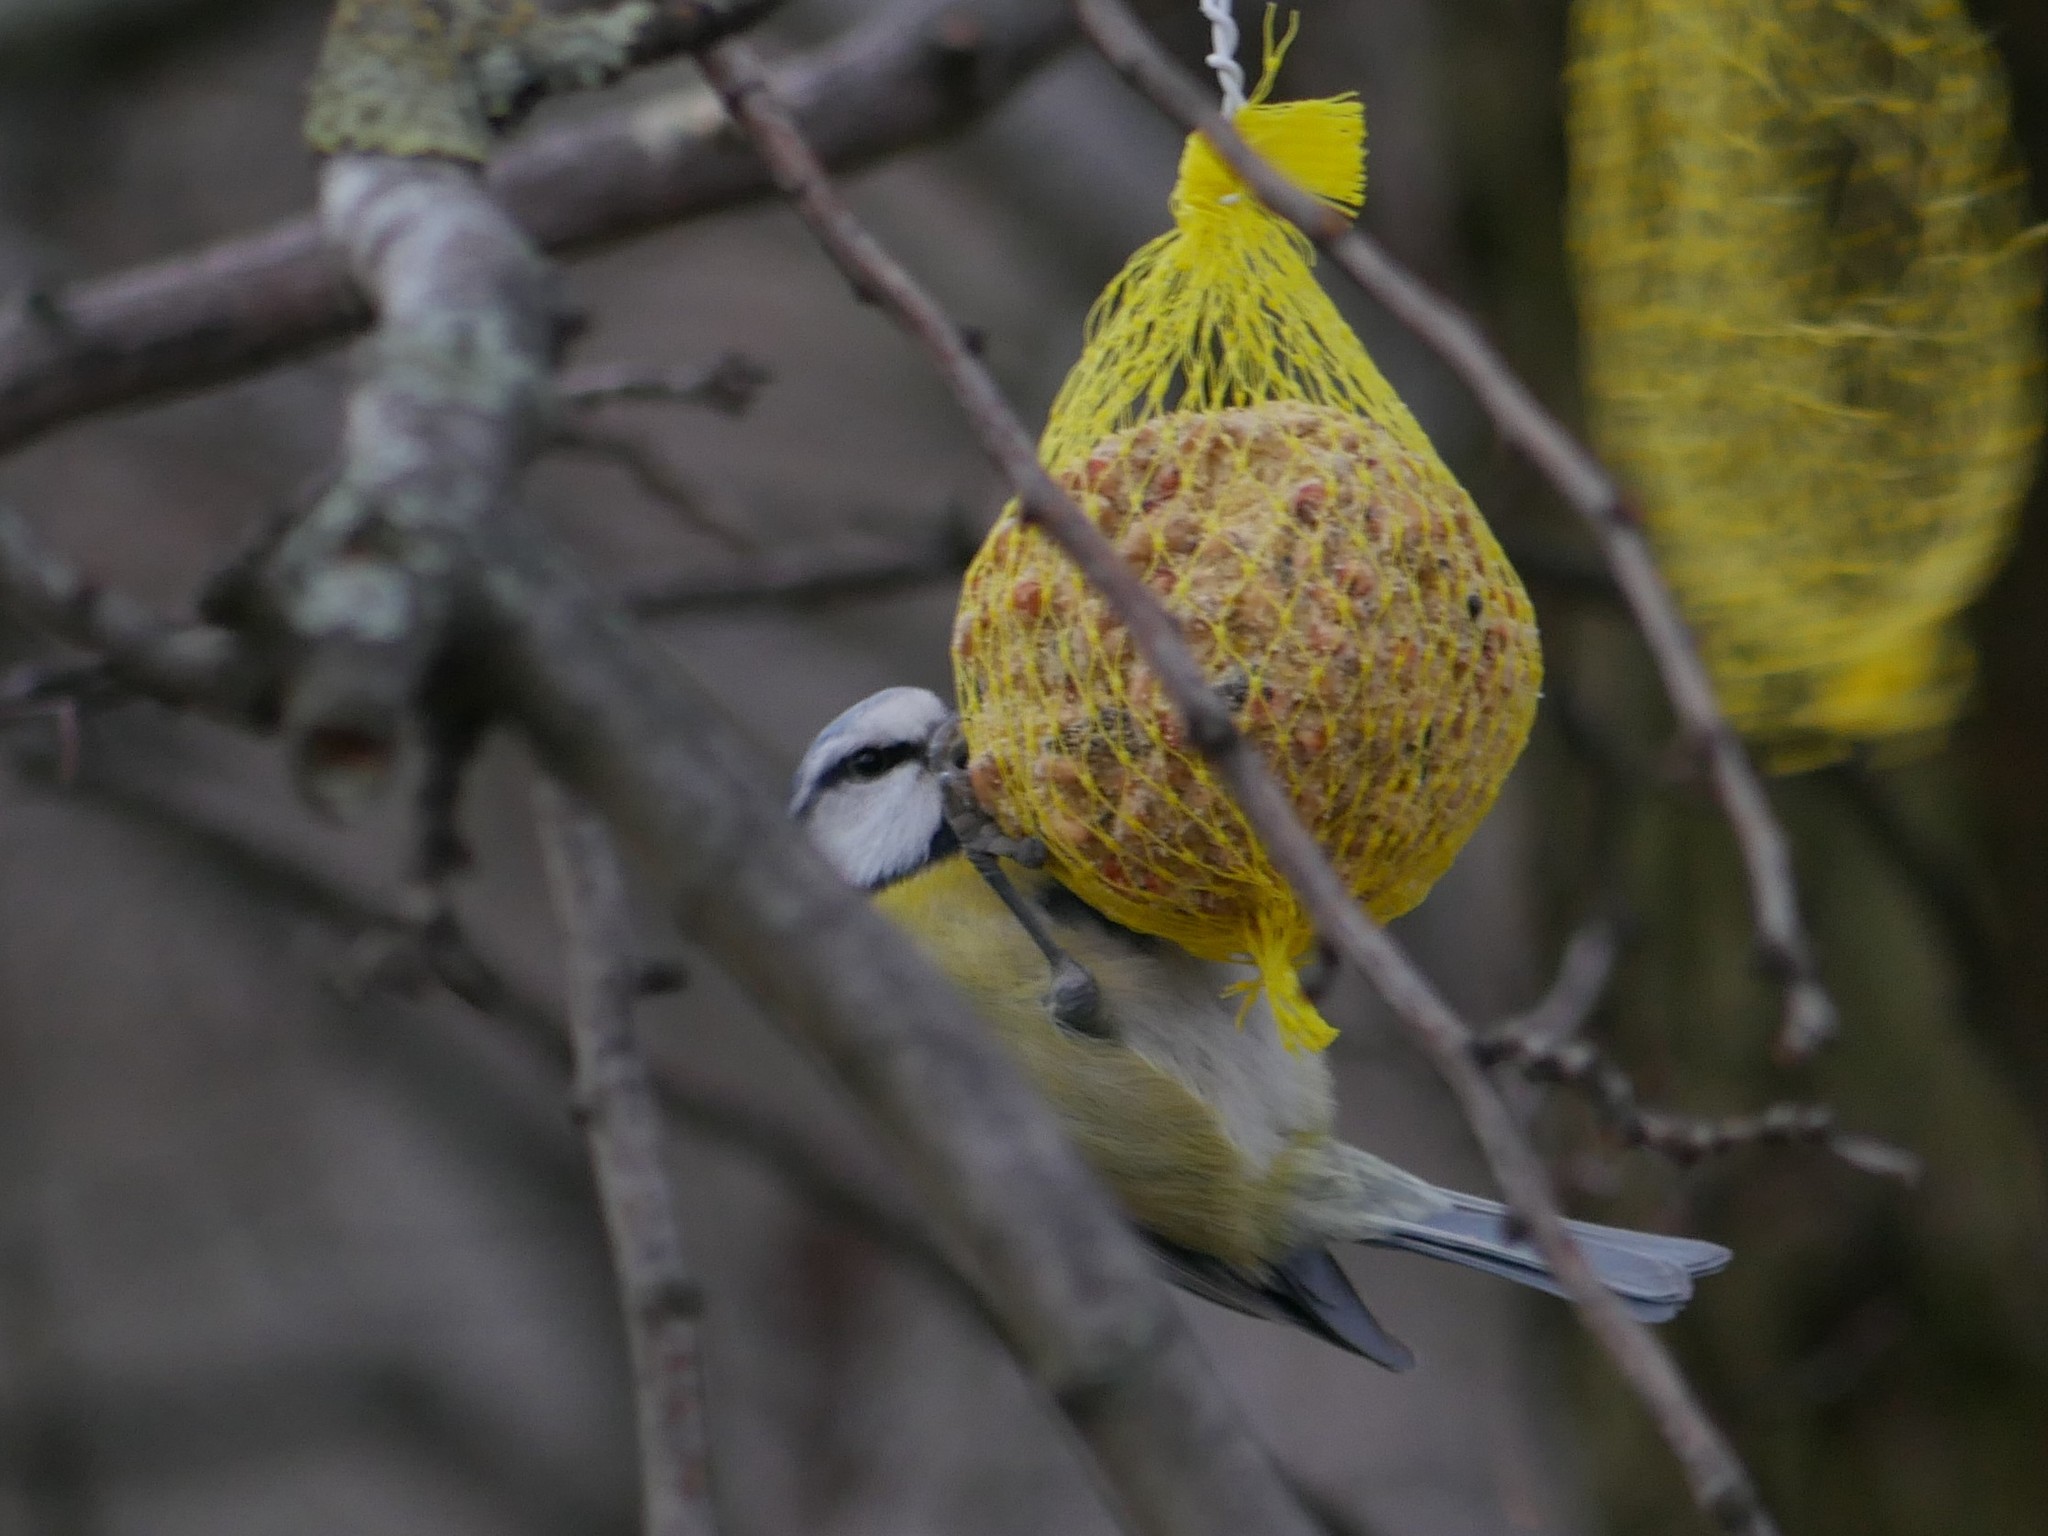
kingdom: Animalia
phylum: Chordata
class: Aves
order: Passeriformes
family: Paridae
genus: Cyanistes
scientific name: Cyanistes caeruleus
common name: Eurasian blue tit
